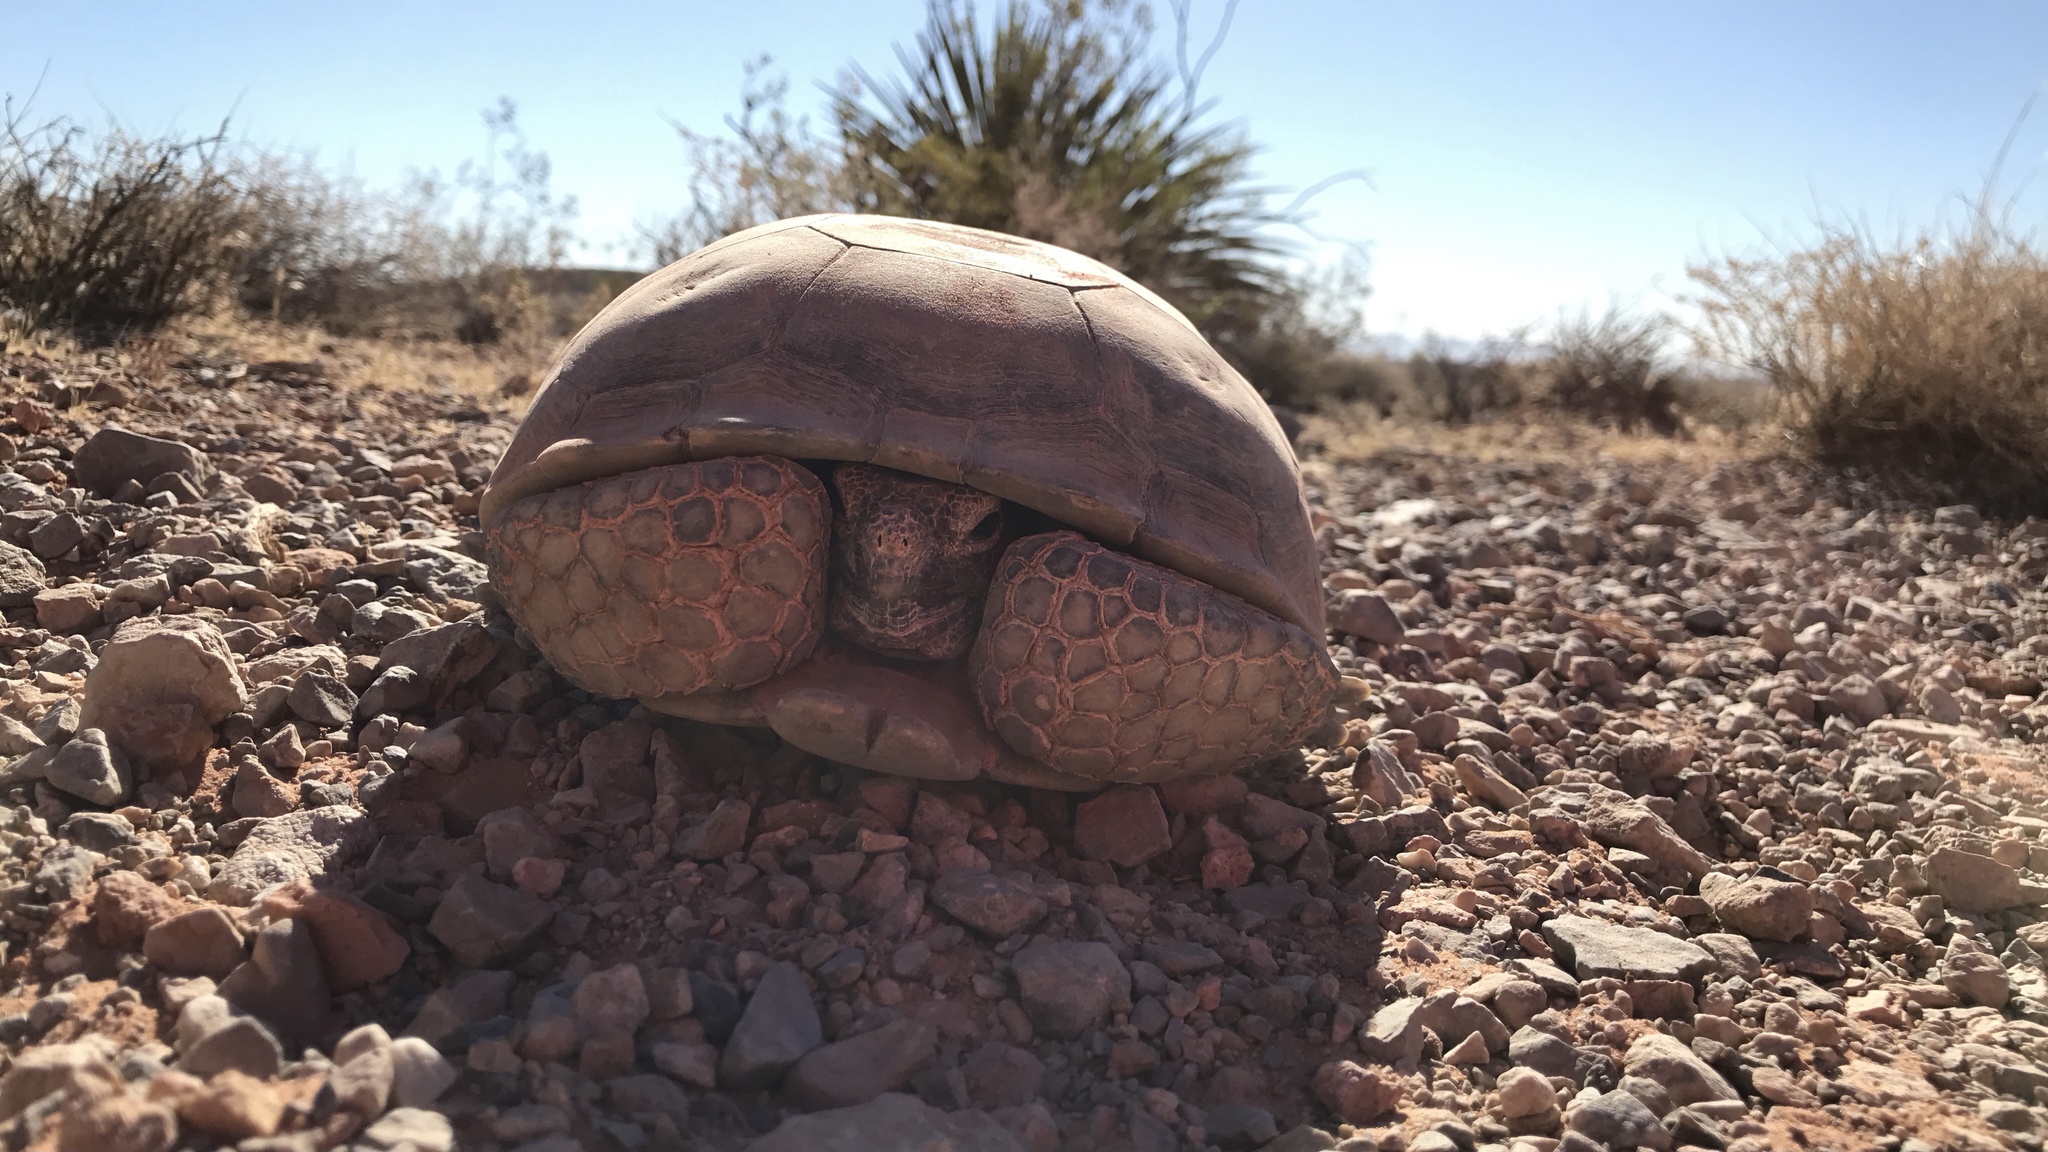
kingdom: Animalia
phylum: Chordata
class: Testudines
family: Testudinidae
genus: Gopherus
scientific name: Gopherus agassizii
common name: Mojave desert tortoise
